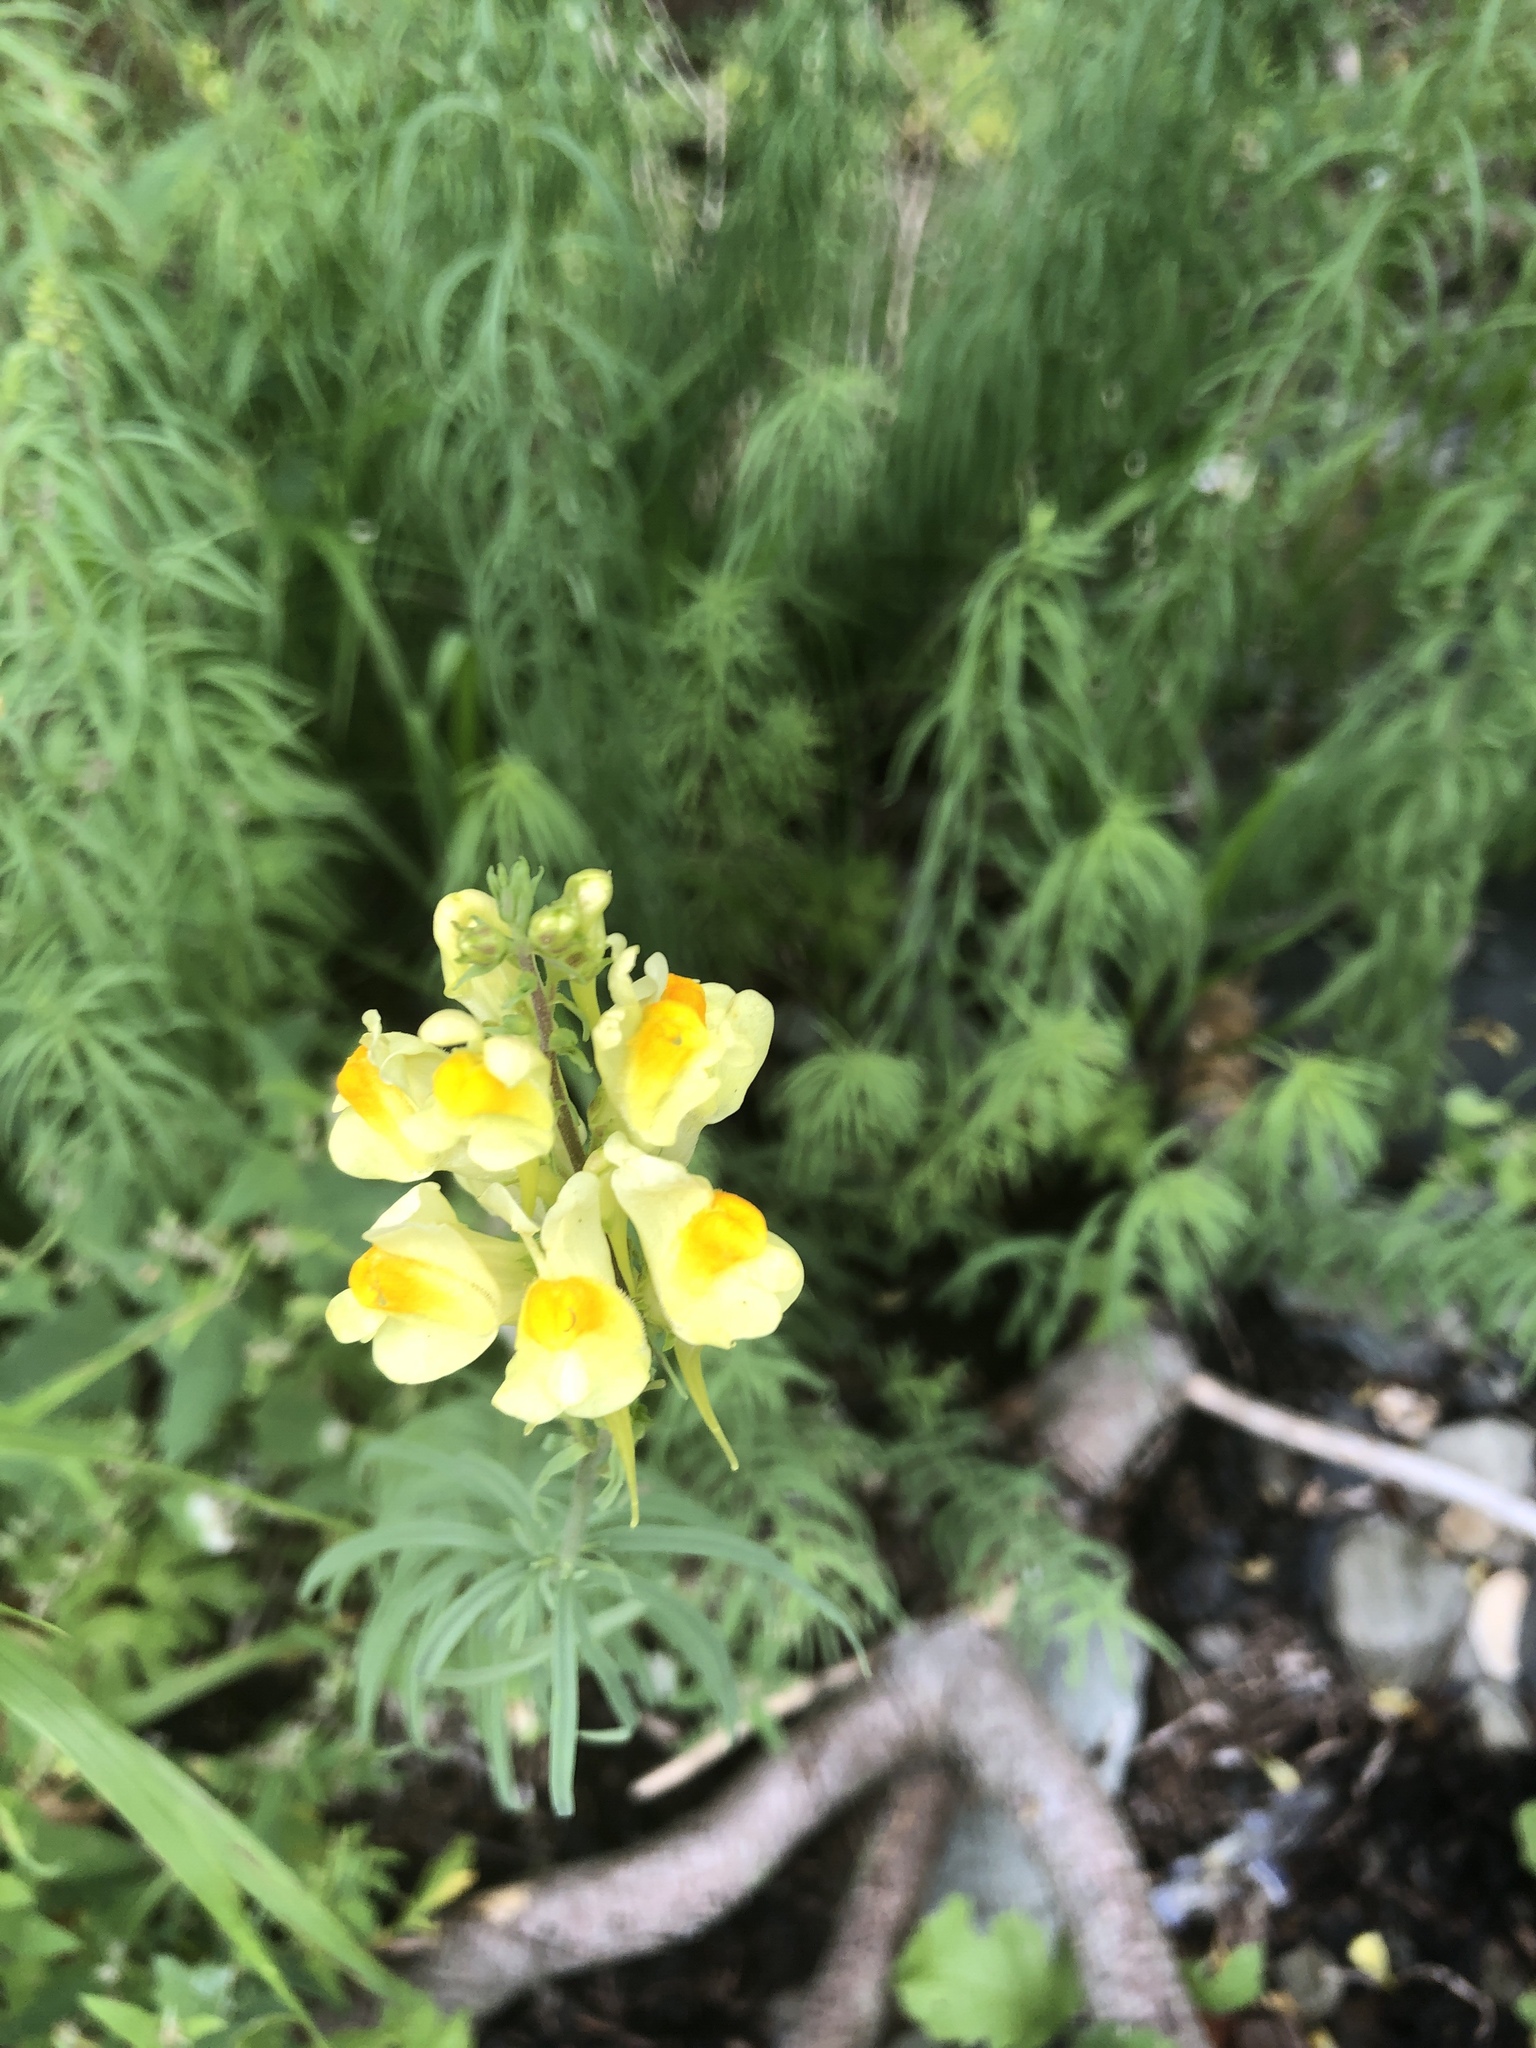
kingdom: Plantae
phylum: Tracheophyta
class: Magnoliopsida
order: Lamiales
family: Plantaginaceae
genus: Linaria
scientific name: Linaria vulgaris
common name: Butter and eggs
